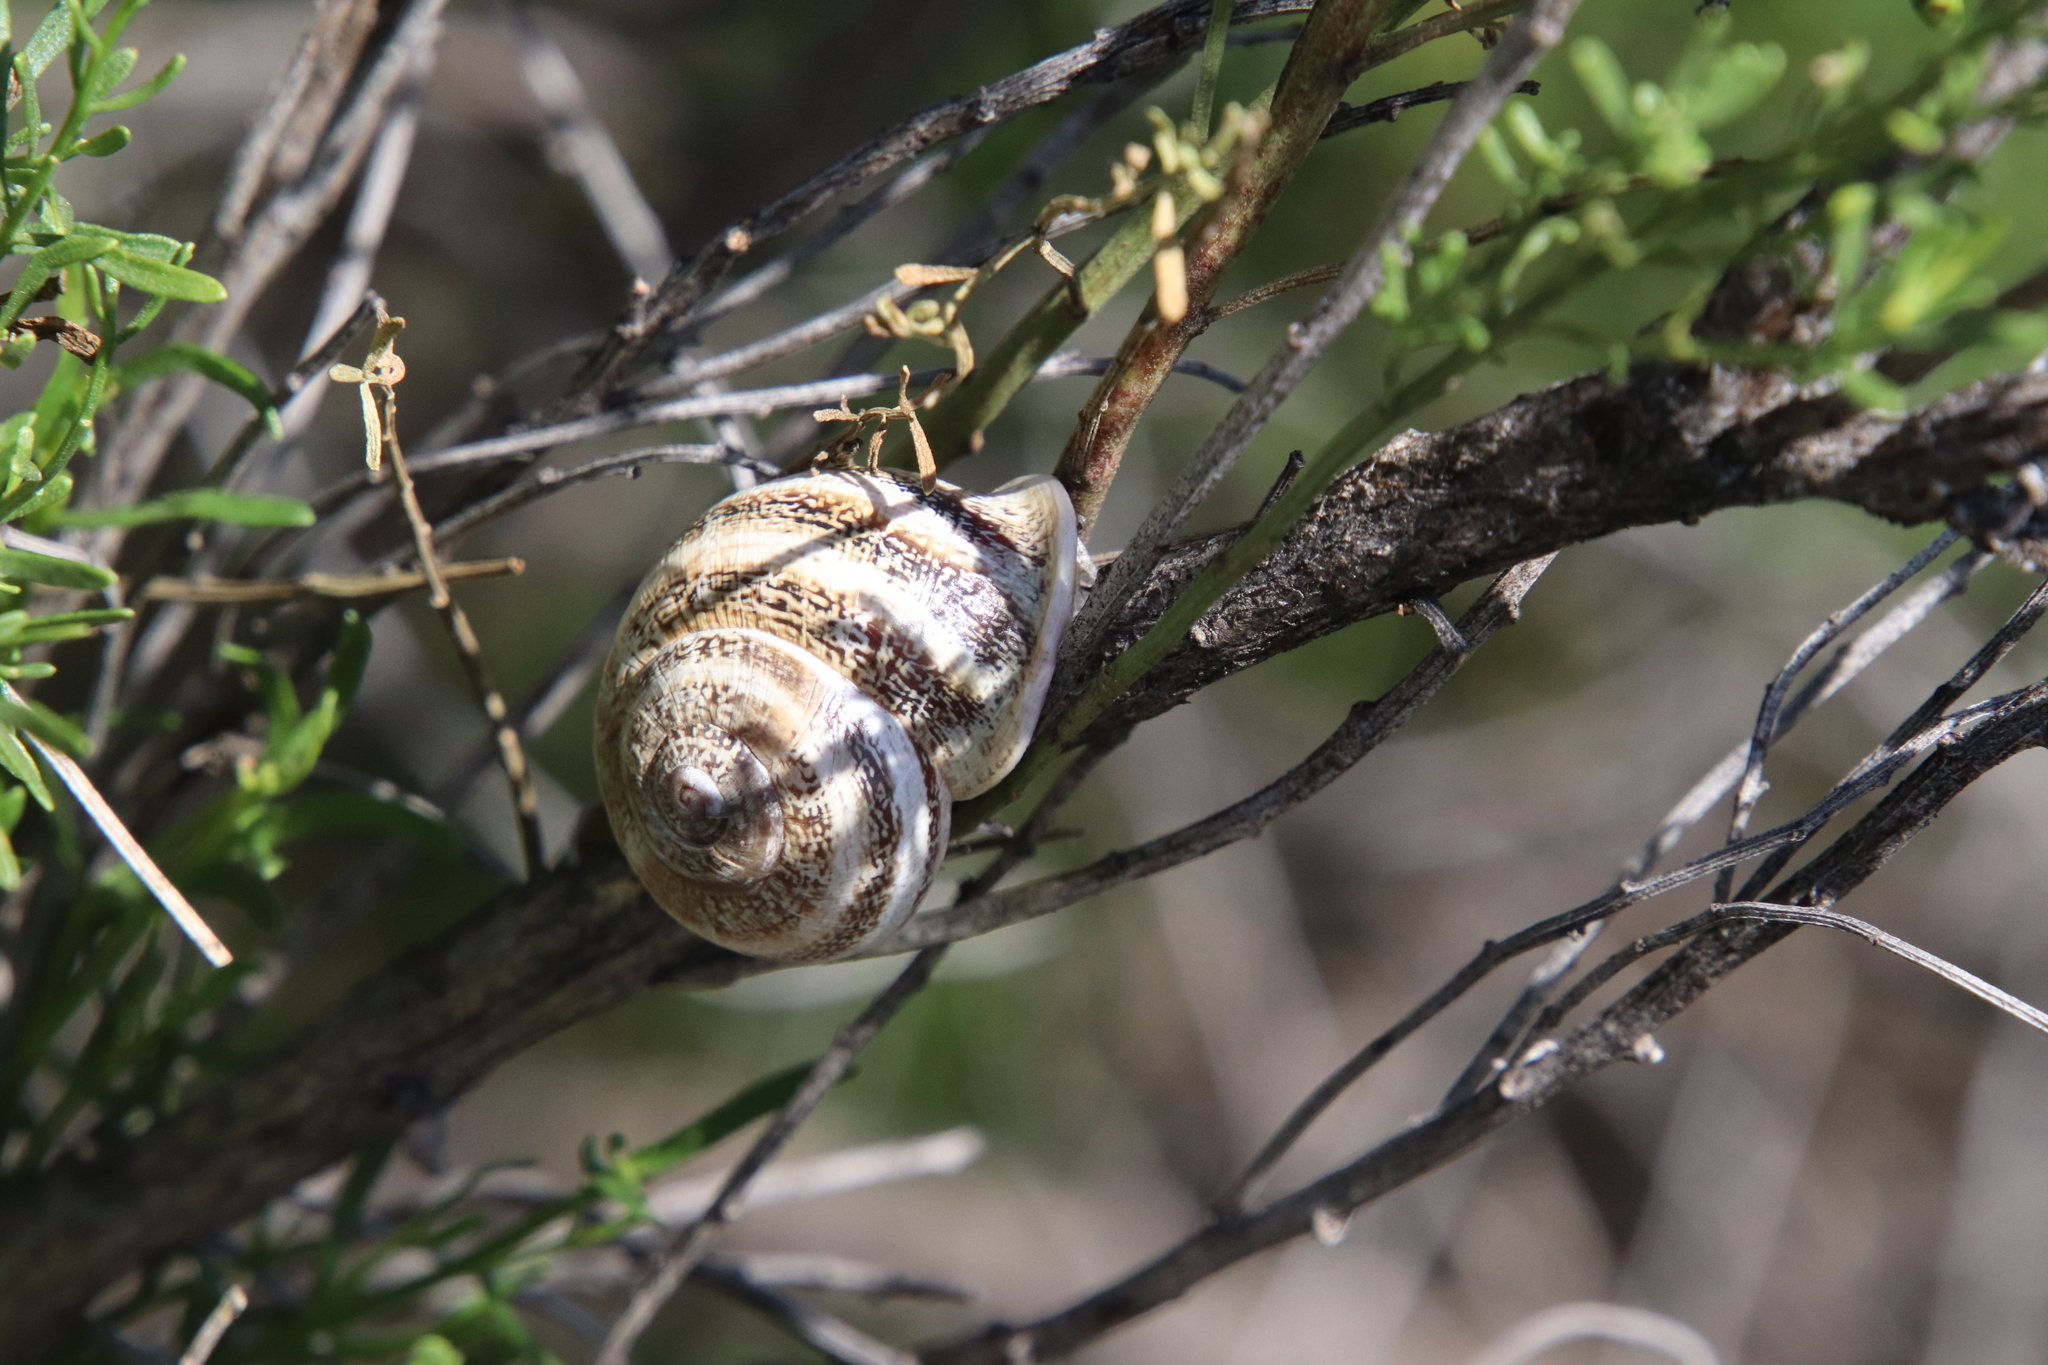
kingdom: Animalia
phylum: Mollusca
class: Gastropoda
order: Stylommatophora
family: Helicidae
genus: Otala
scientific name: Otala lactea
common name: Milk snail
